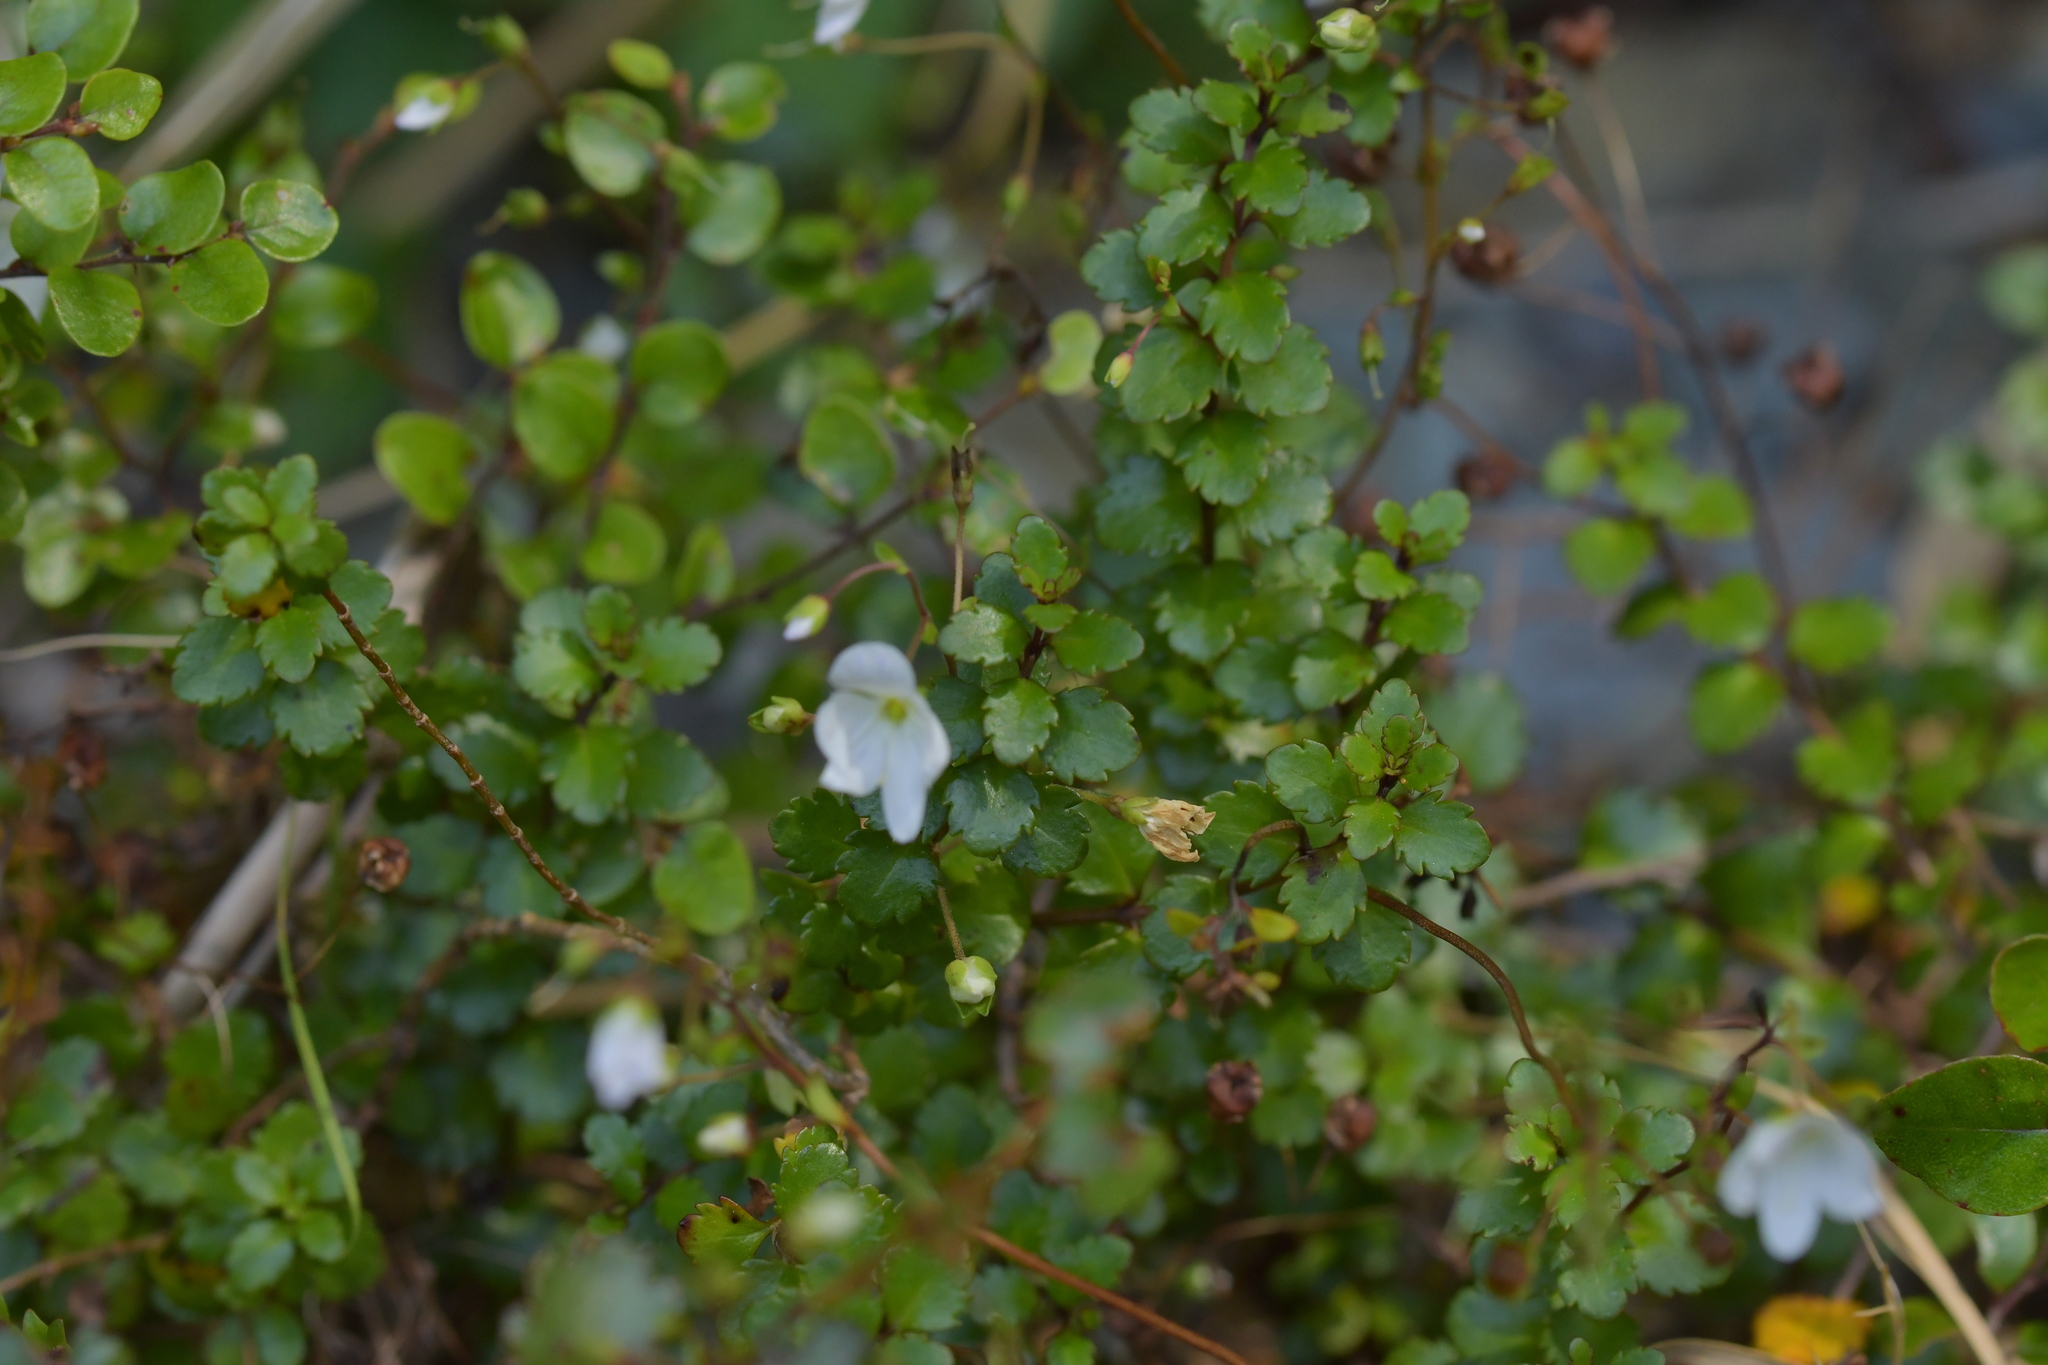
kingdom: Plantae
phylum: Tracheophyta
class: Magnoliopsida
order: Lamiales
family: Plantaginaceae
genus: Veronica
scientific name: Veronica lyallii
